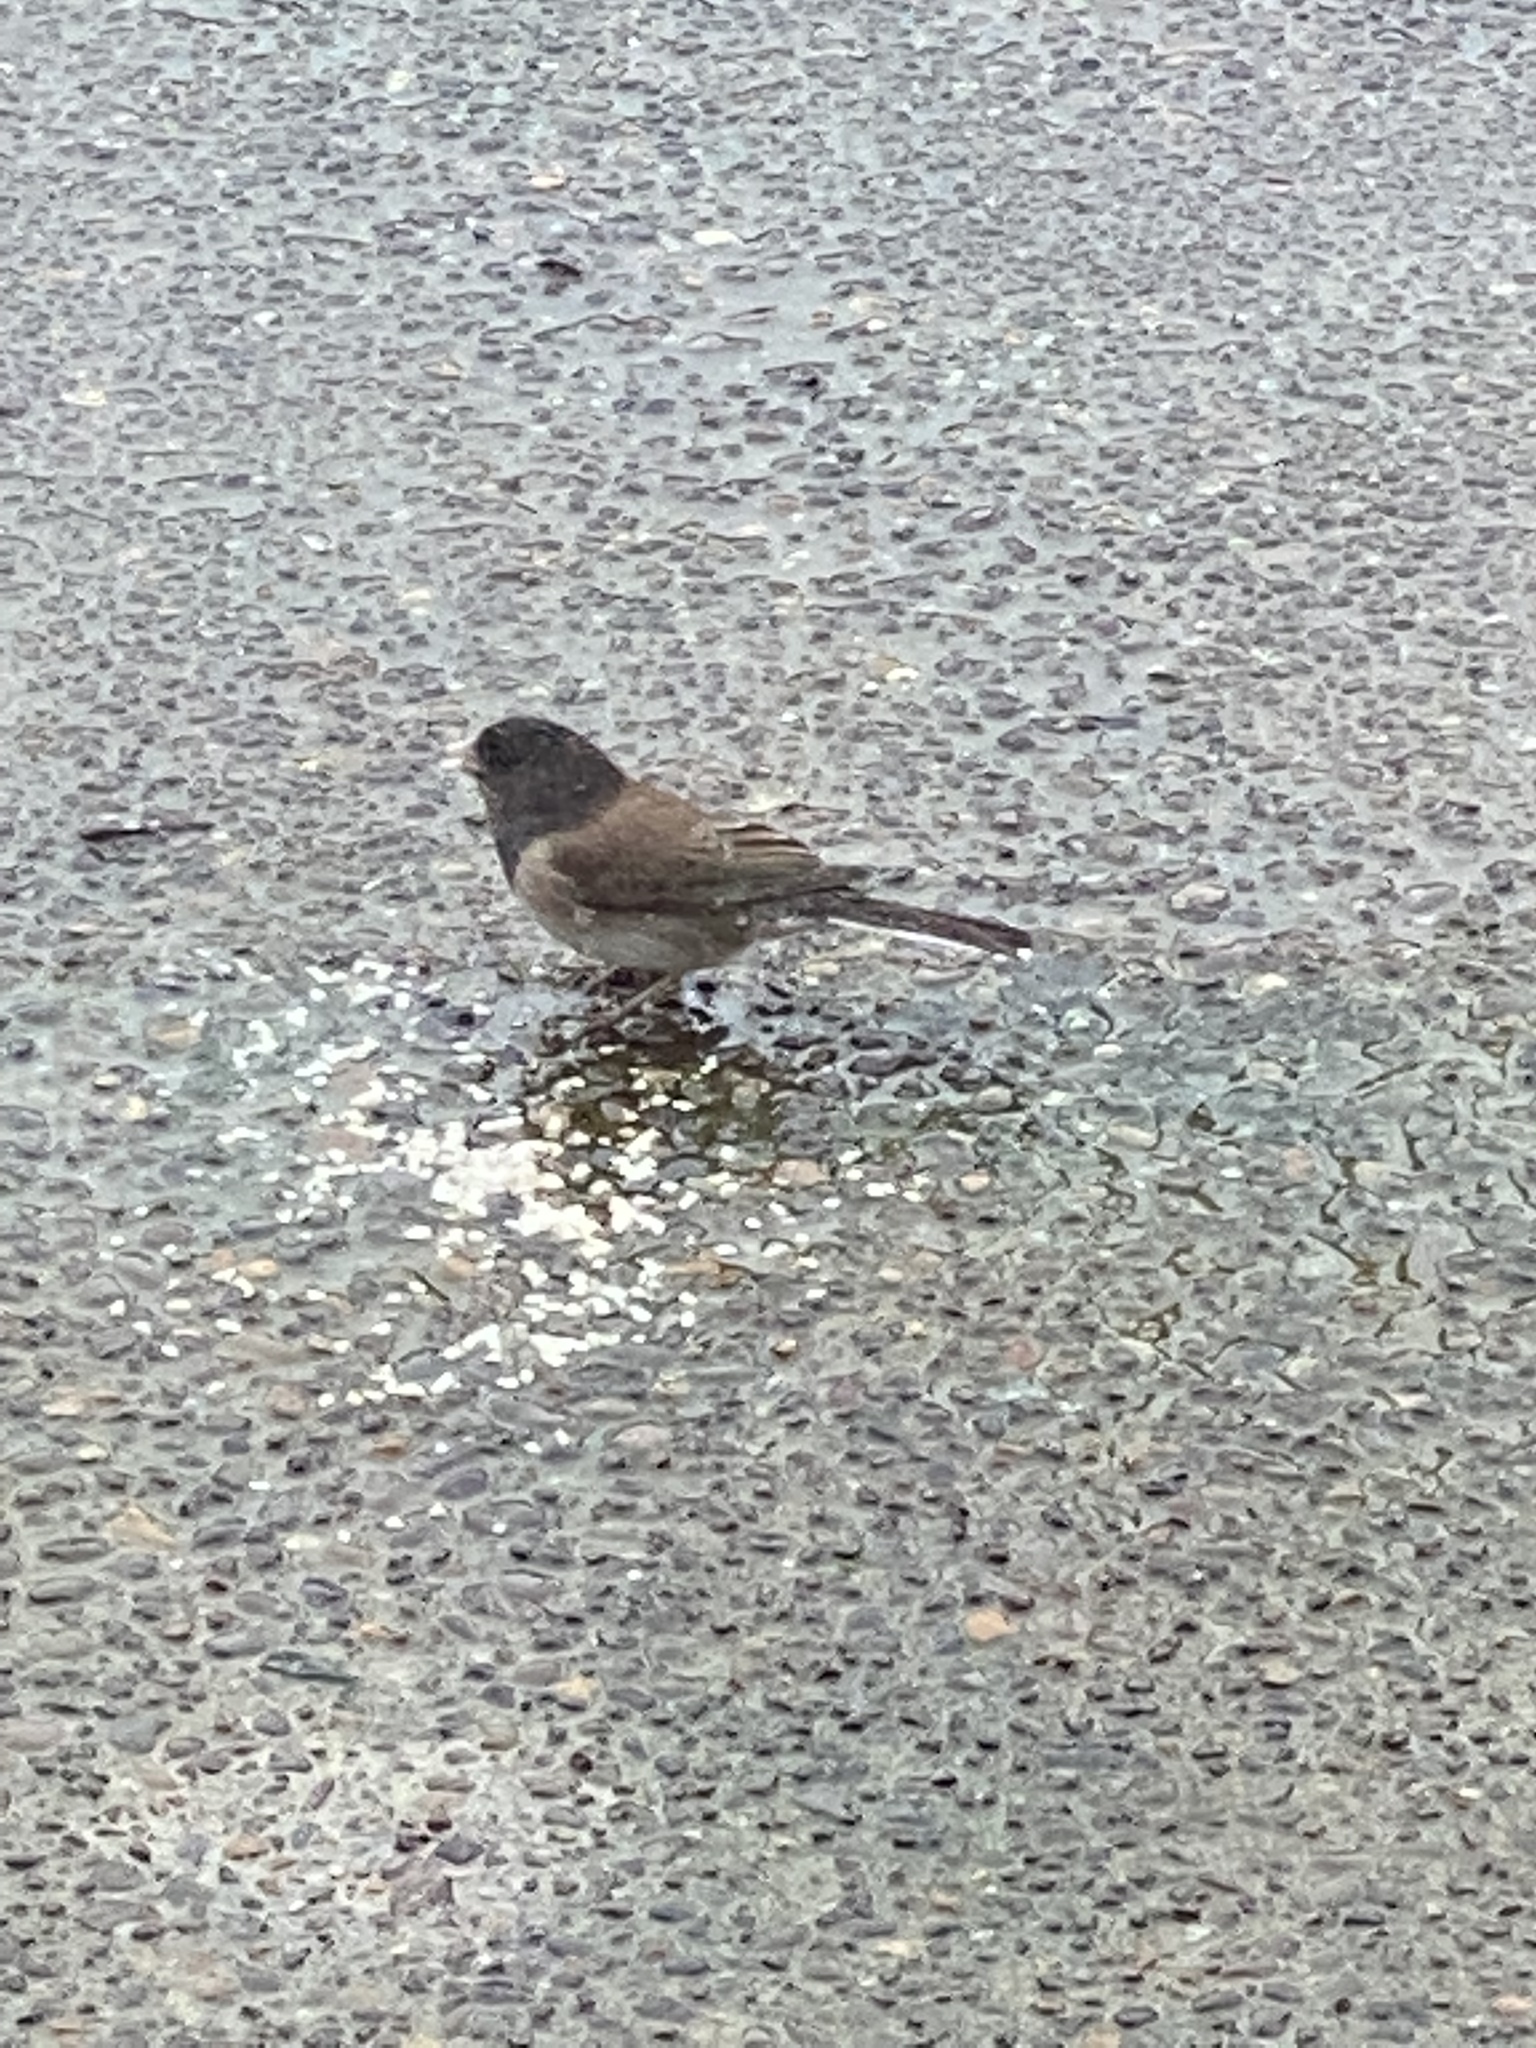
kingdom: Animalia
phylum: Chordata
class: Aves
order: Passeriformes
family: Passerellidae
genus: Junco
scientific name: Junco hyemalis
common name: Dark-eyed junco
